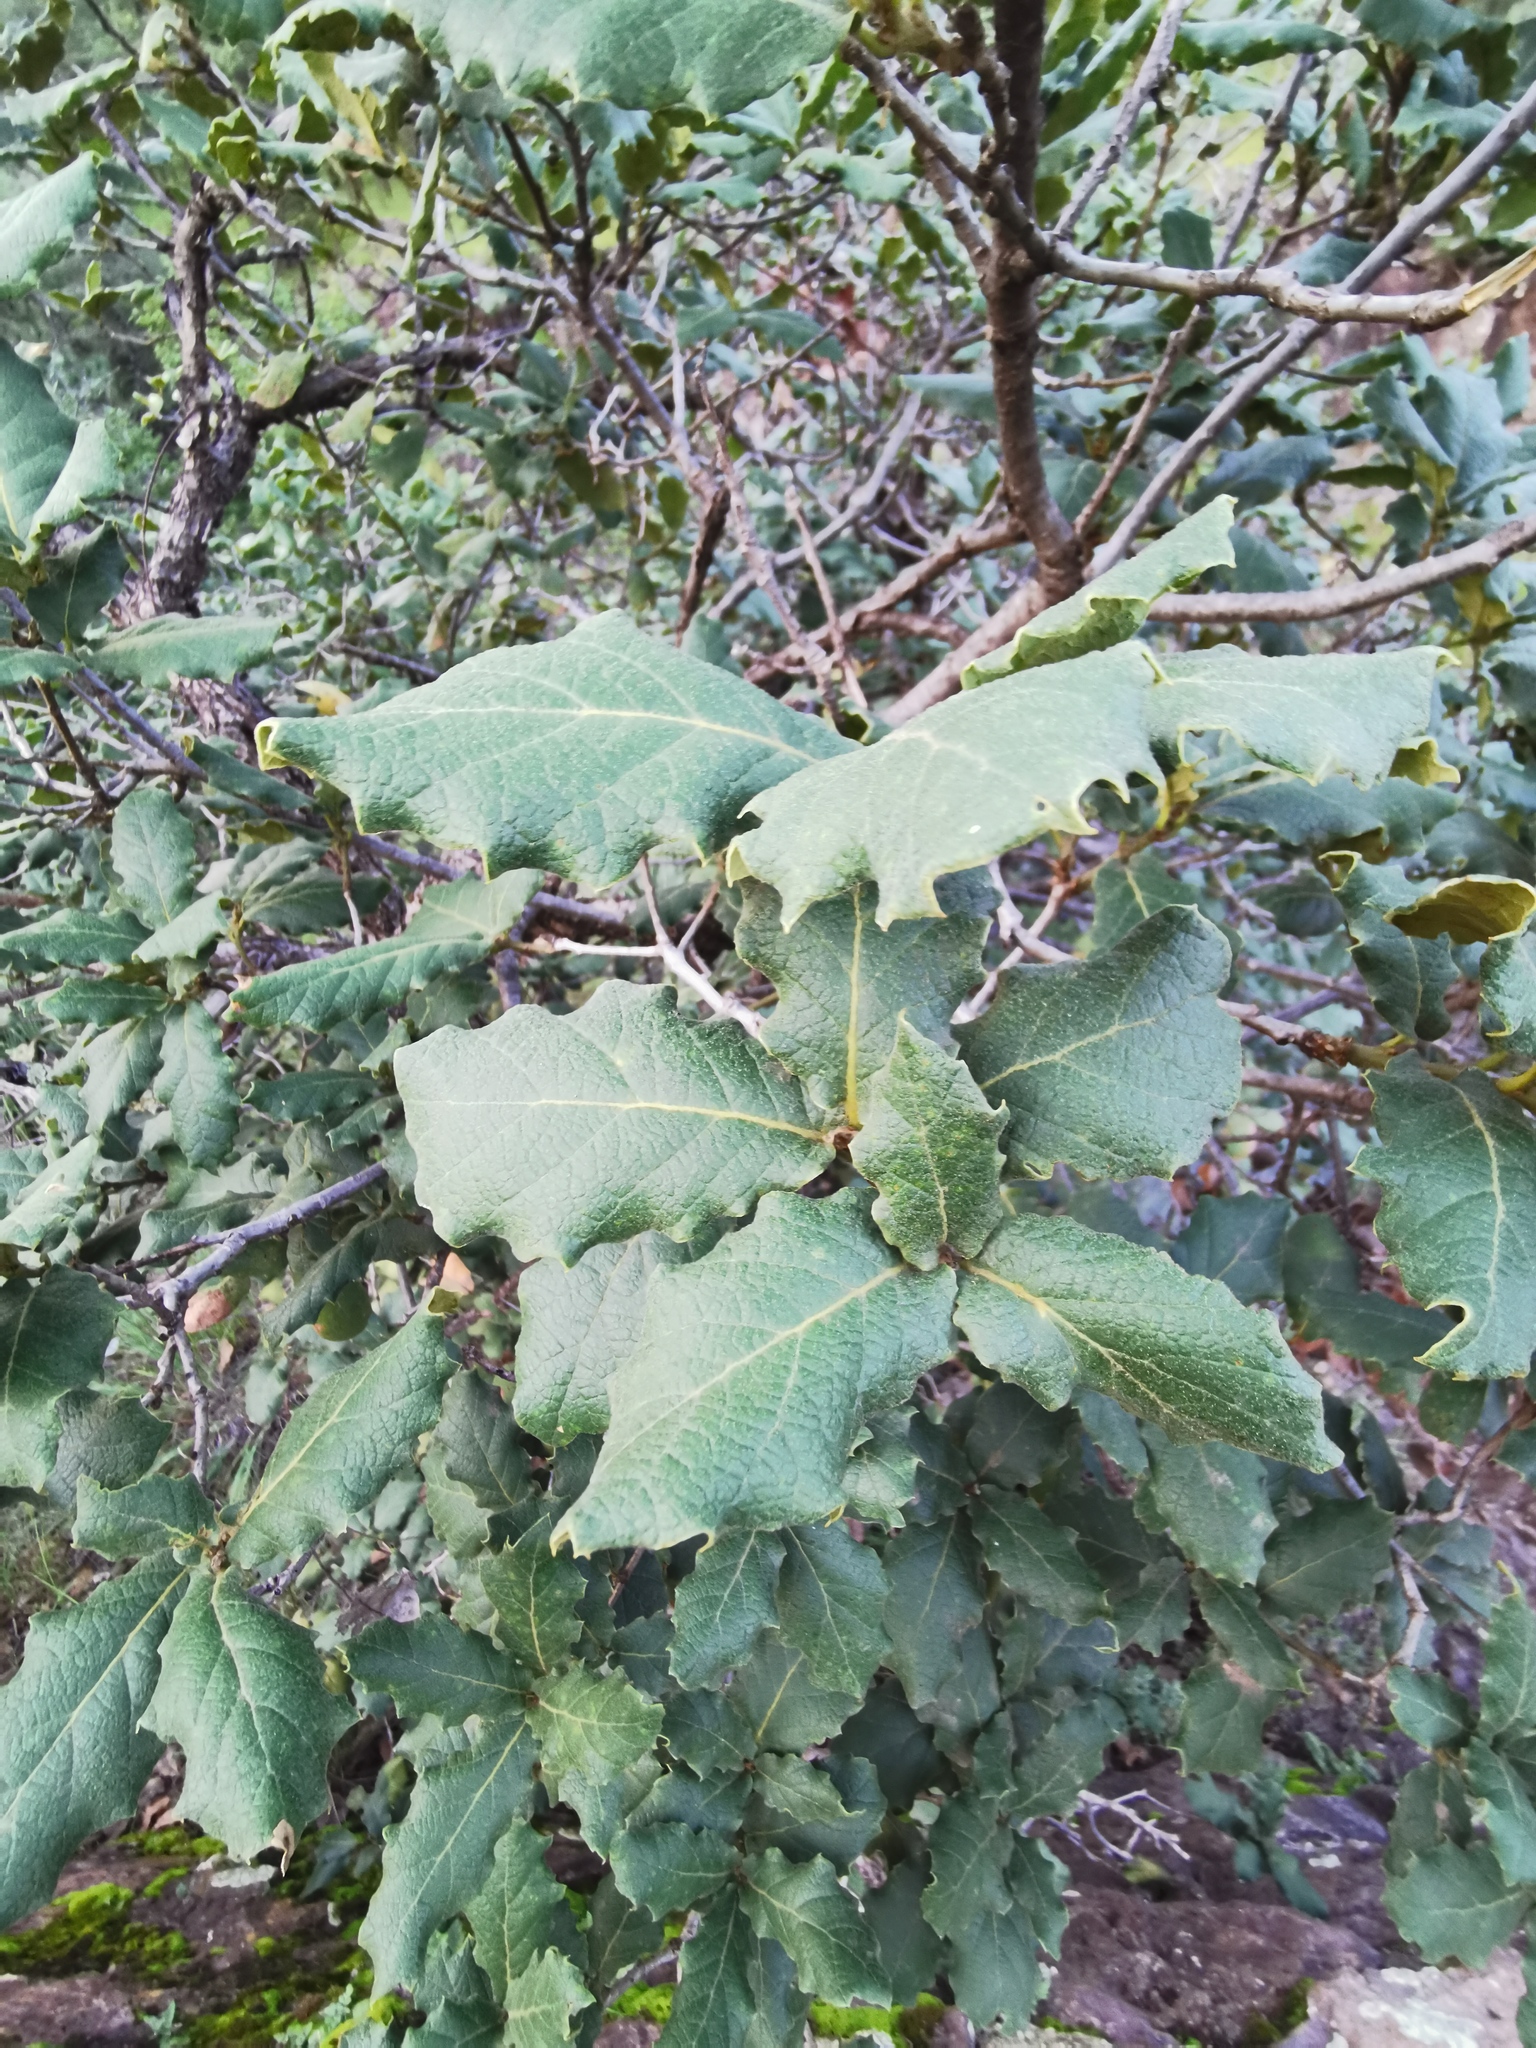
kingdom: Plantae
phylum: Tracheophyta
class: Magnoliopsida
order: Fagales
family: Fagaceae
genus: Quercus
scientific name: Quercus rugosa
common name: Netleaf oak
